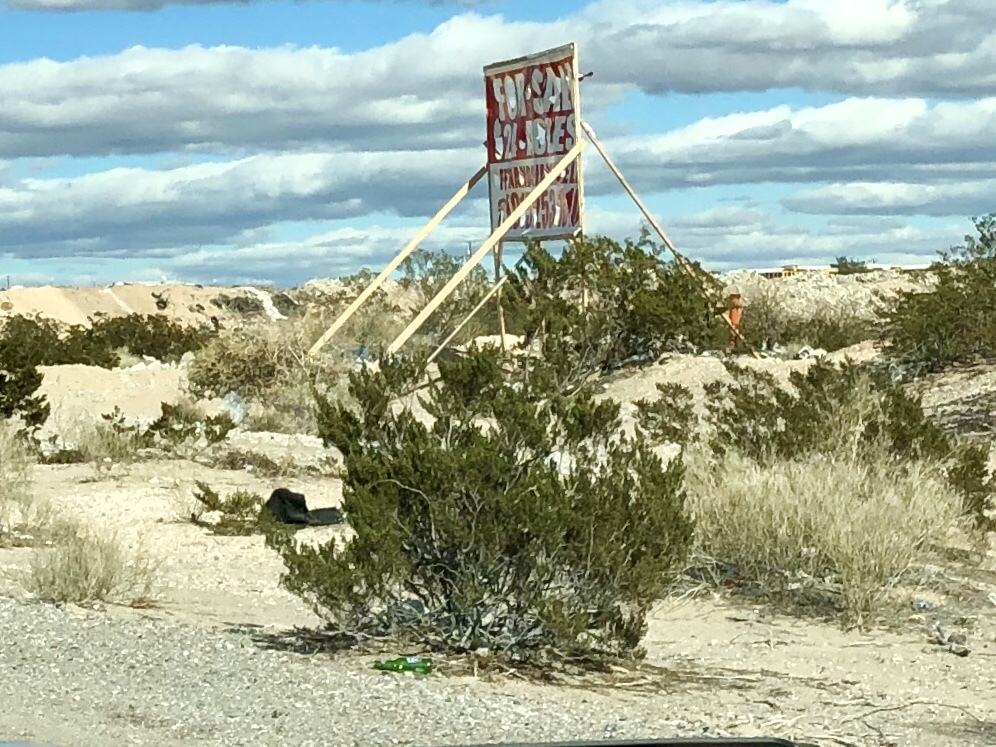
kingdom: Plantae
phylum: Tracheophyta
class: Magnoliopsida
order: Zygophyllales
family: Zygophyllaceae
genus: Larrea
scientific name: Larrea tridentata
